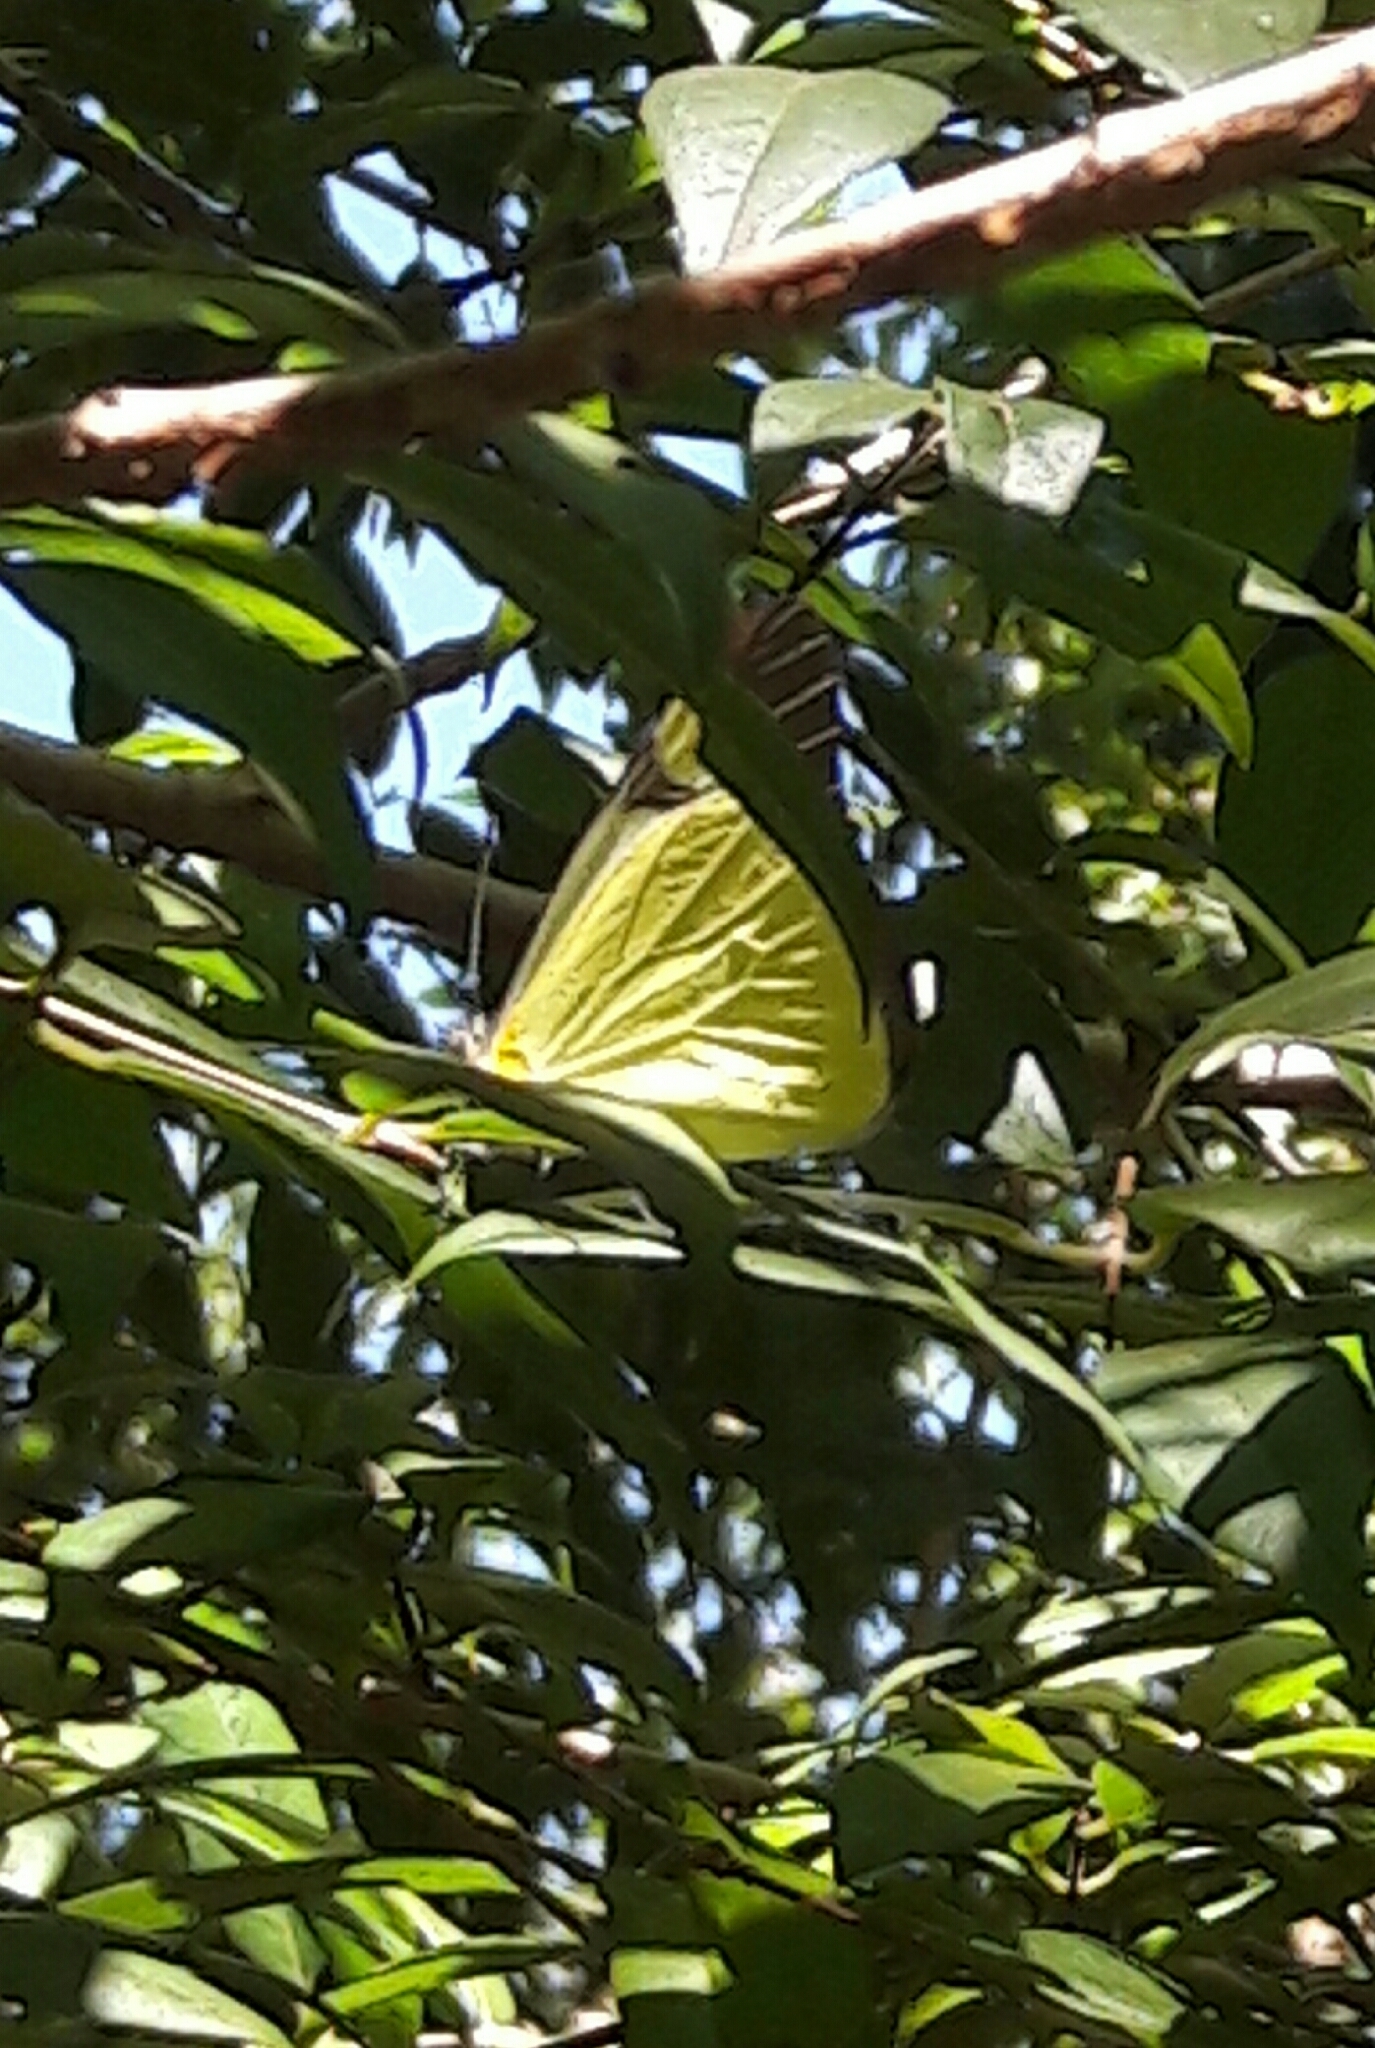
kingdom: Animalia
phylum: Arthropoda
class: Insecta
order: Lepidoptera
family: Pieridae
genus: Melete
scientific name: Melete lycimnia
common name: Common melwhite
